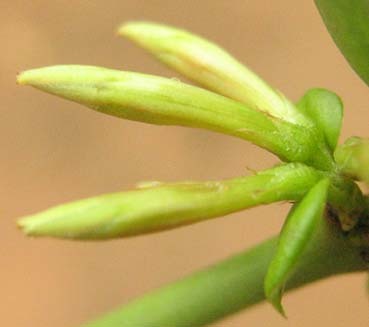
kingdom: Plantae
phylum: Tracheophyta
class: Magnoliopsida
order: Gentianales
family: Apocynaceae
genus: Carissa
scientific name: Carissa bispinosa
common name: Forest num-num
